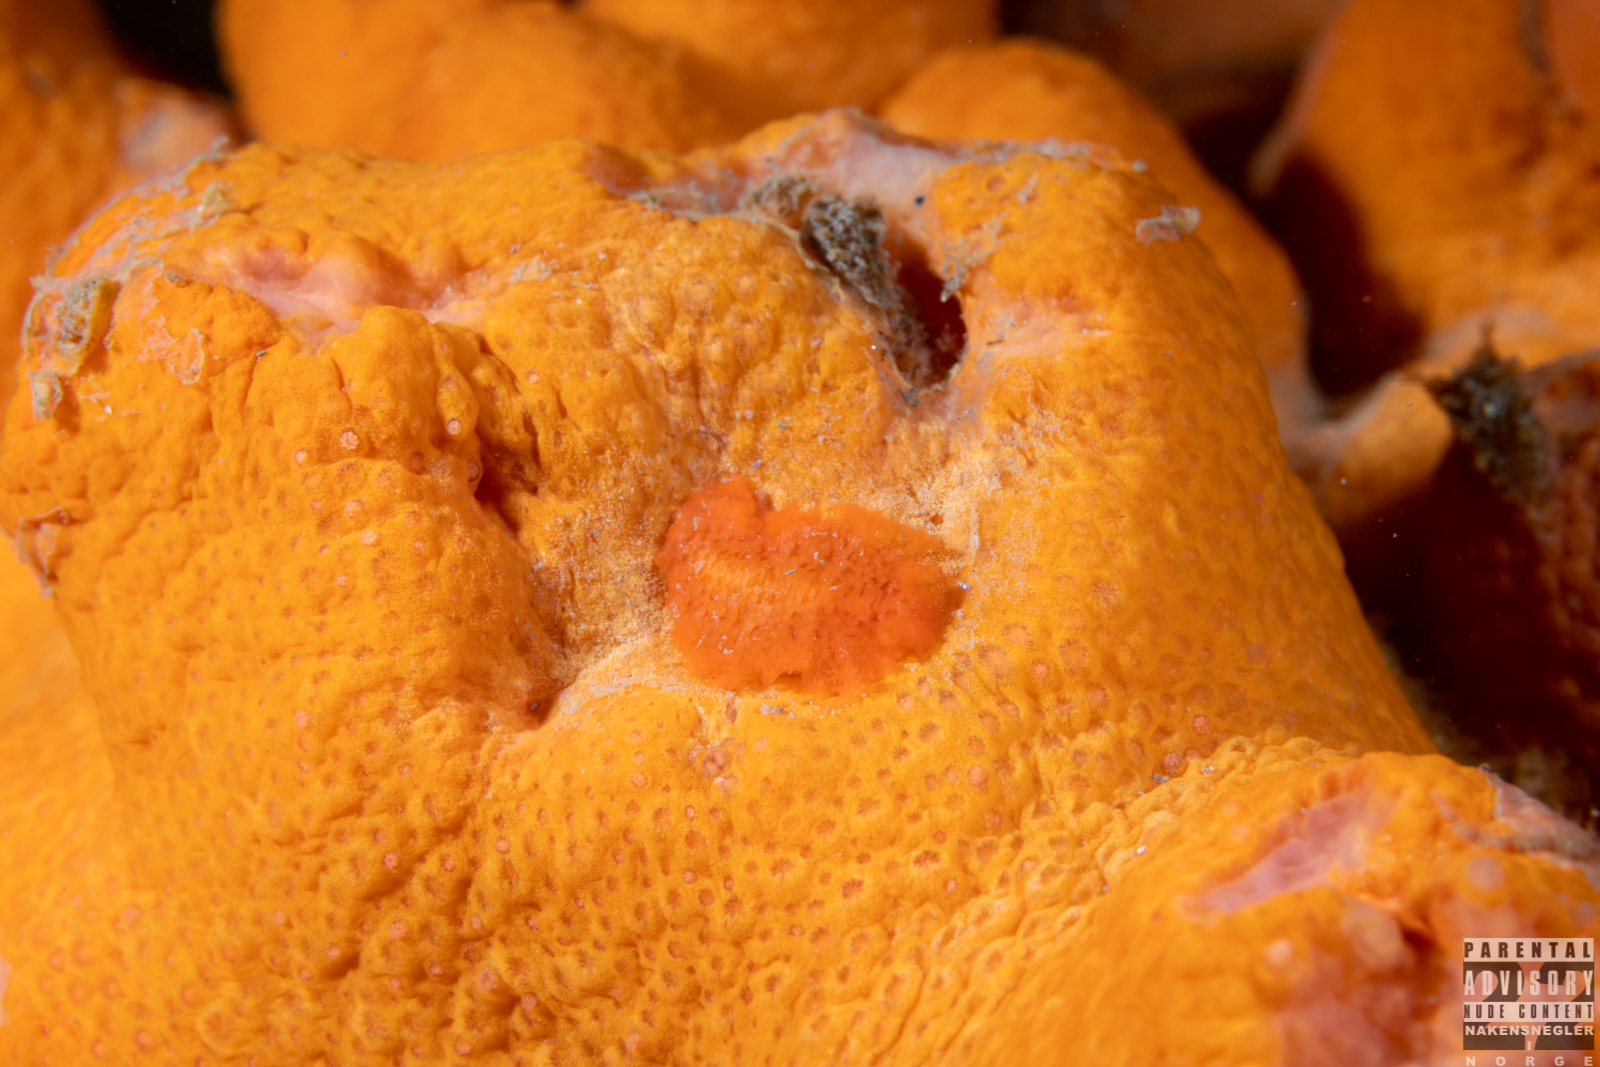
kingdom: Animalia
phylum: Mollusca
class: Gastropoda
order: Nudibranchia
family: Tritoniidae
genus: Tritonia
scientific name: Tritonia hombergii
